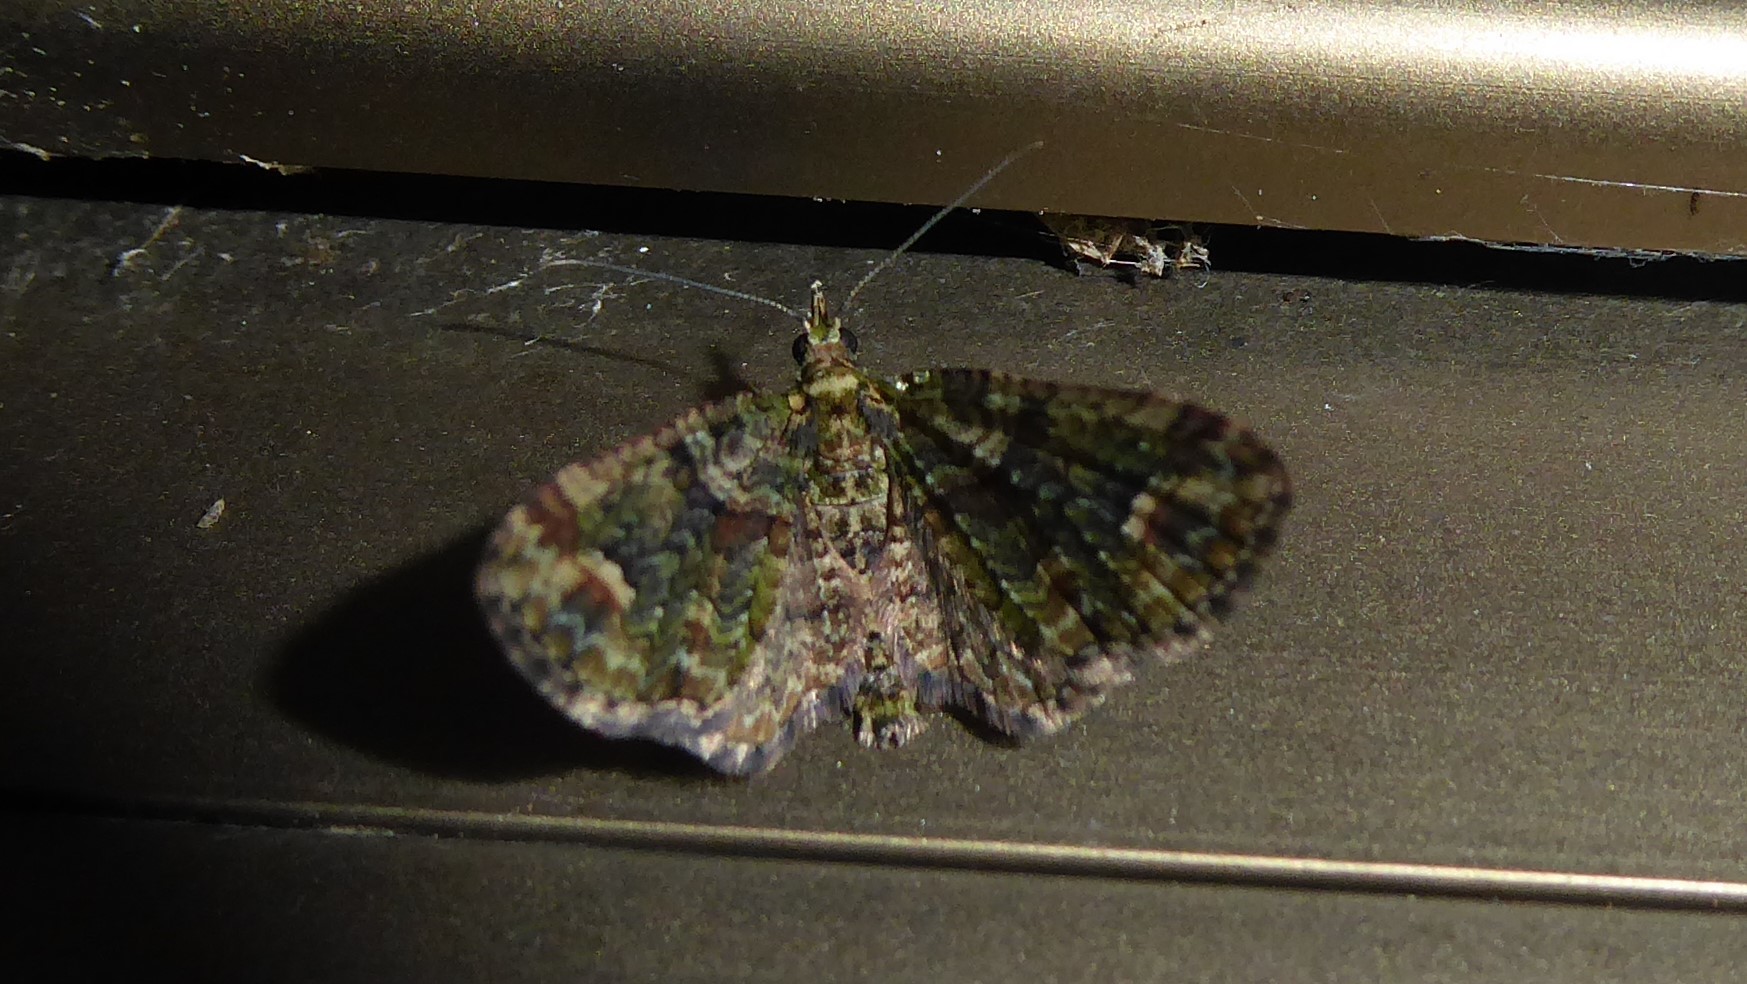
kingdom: Animalia
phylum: Arthropoda
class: Insecta
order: Lepidoptera
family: Geometridae
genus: Idaea
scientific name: Idaea mutanda
